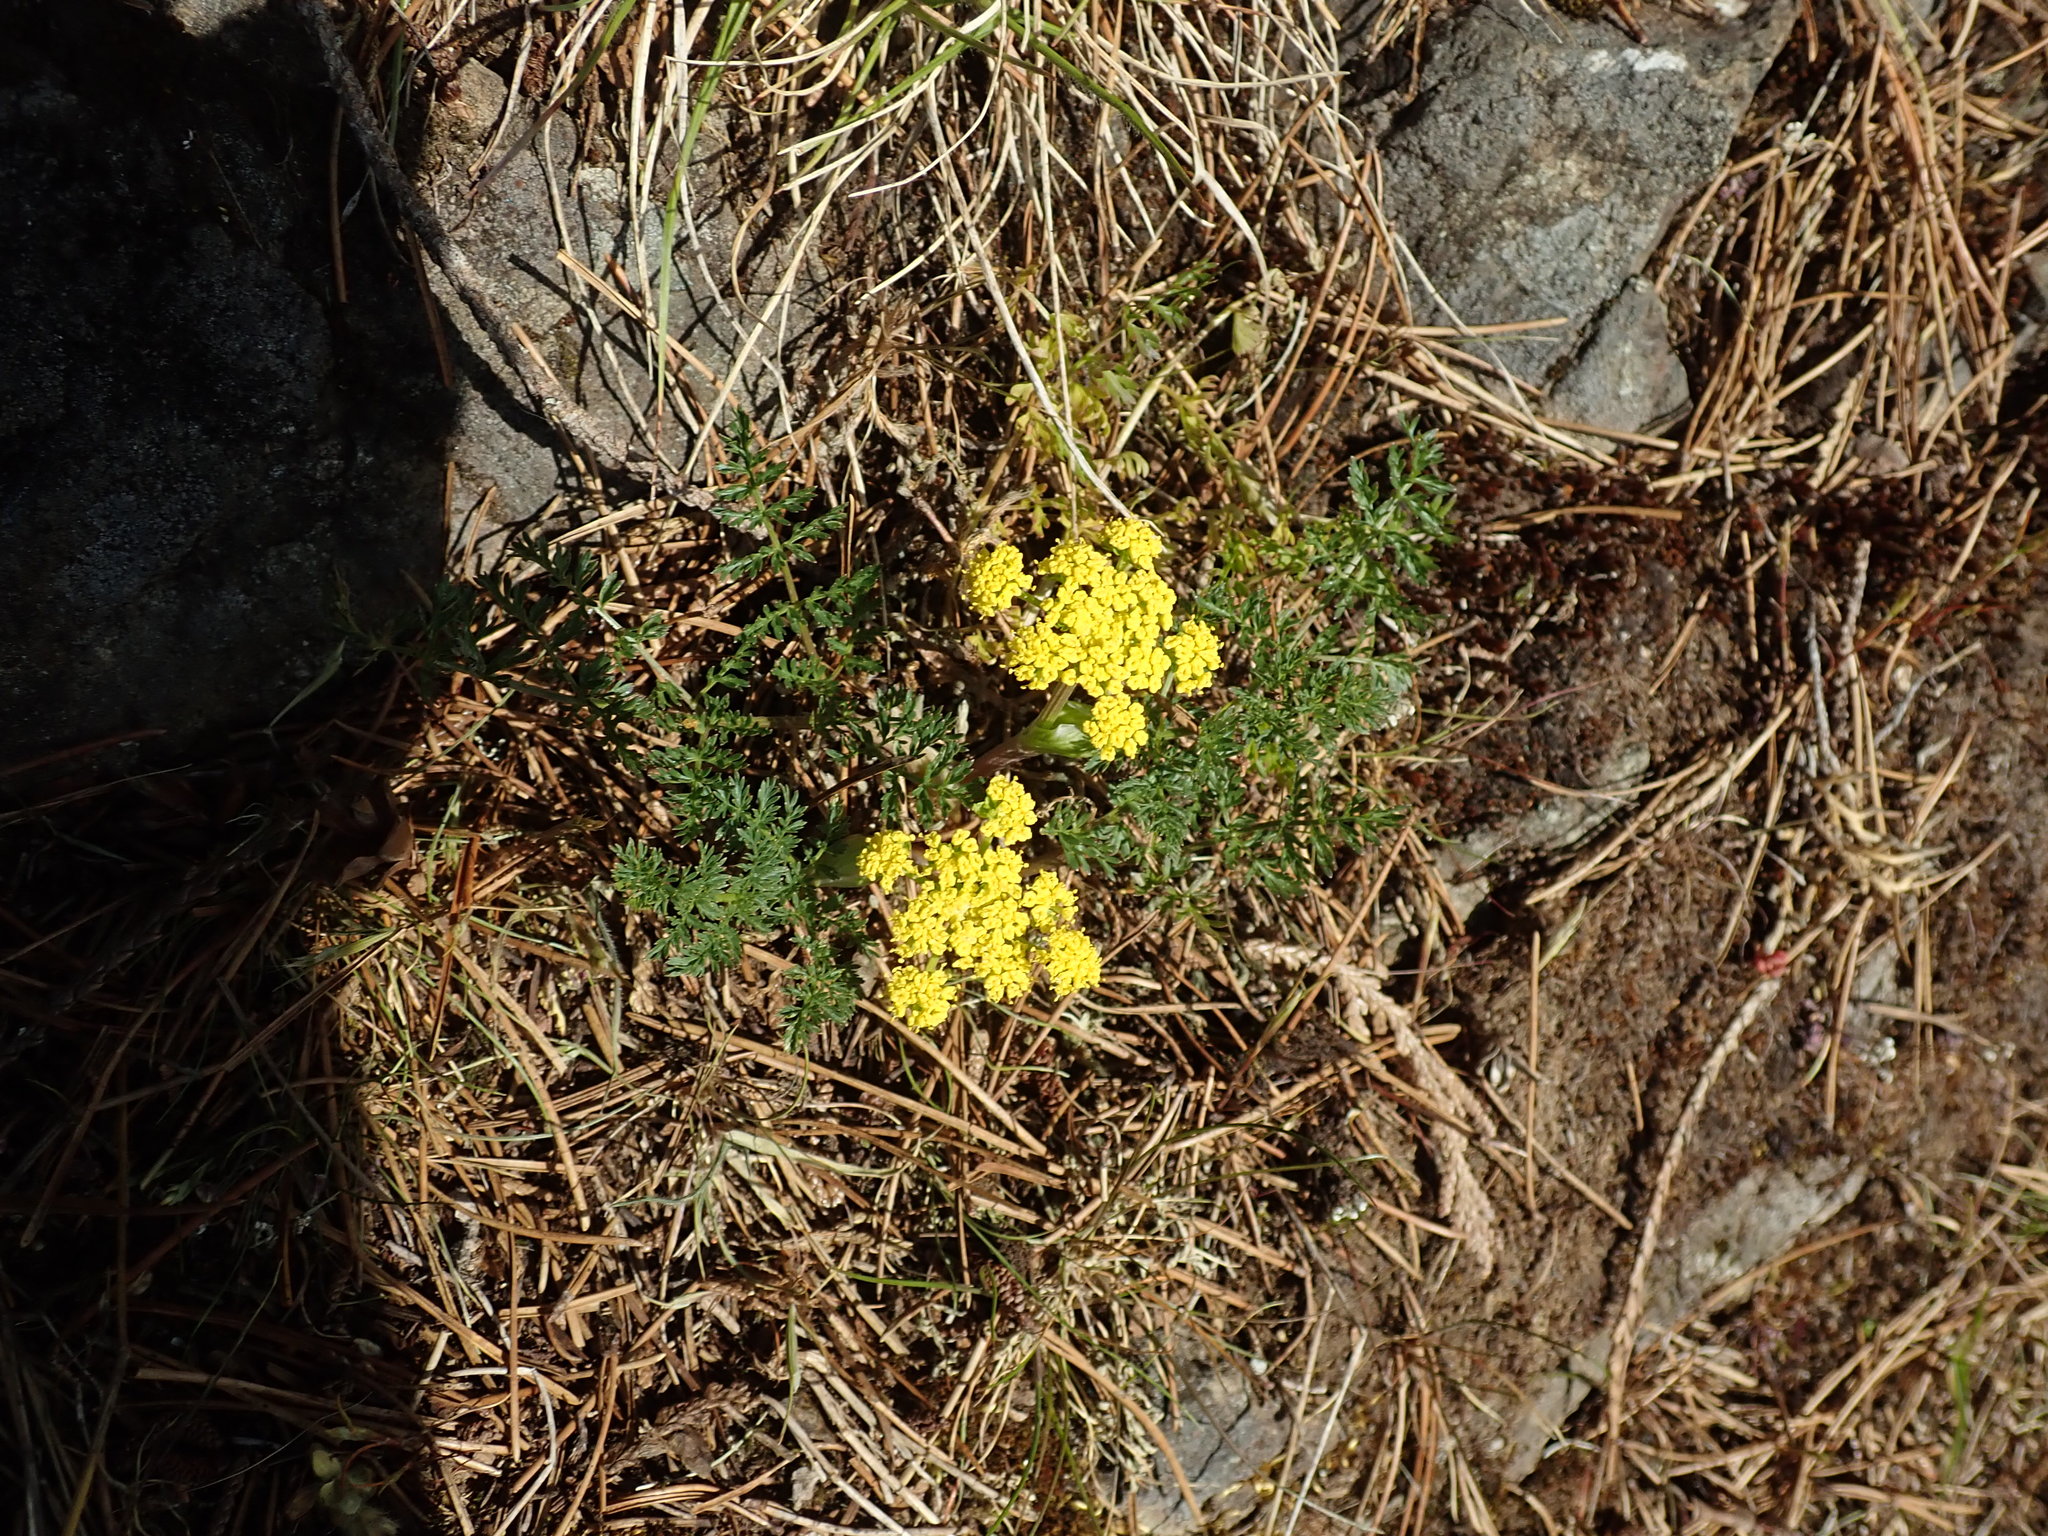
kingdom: Plantae
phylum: Tracheophyta
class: Magnoliopsida
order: Apiales
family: Apiaceae
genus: Lomatium
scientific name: Lomatium utriculatum
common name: Fine-leaf desert-parsley
